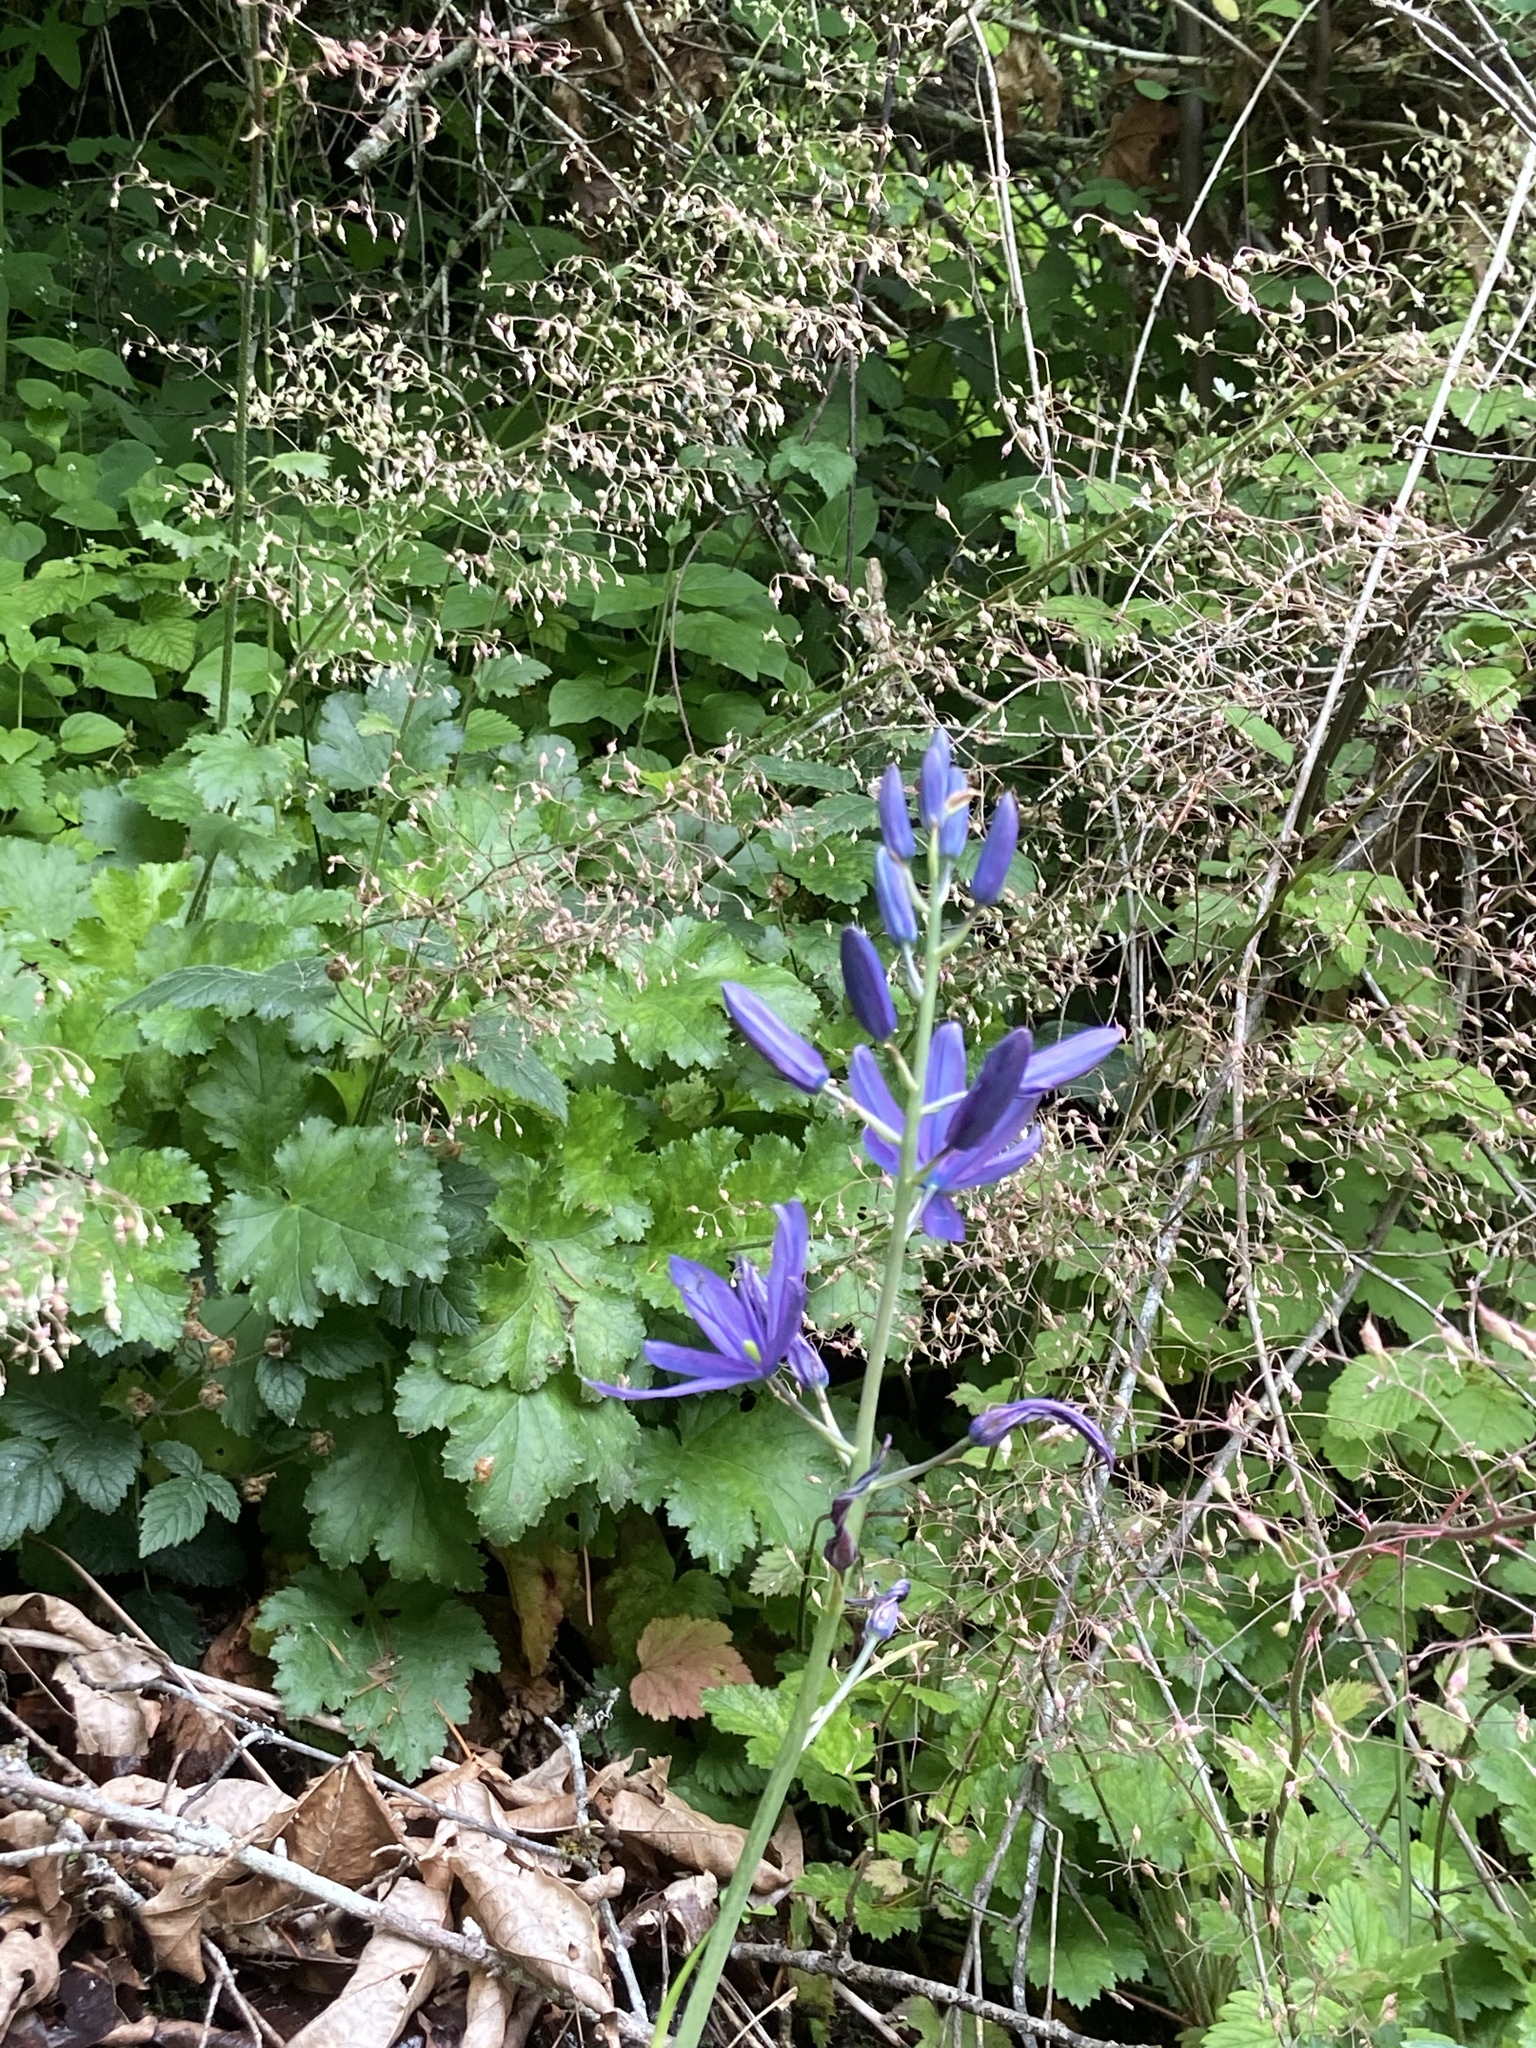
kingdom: Plantae
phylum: Tracheophyta
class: Liliopsida
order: Asparagales
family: Asparagaceae
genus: Camassia
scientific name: Camassia leichtlinii
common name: Leichtlin's camas
